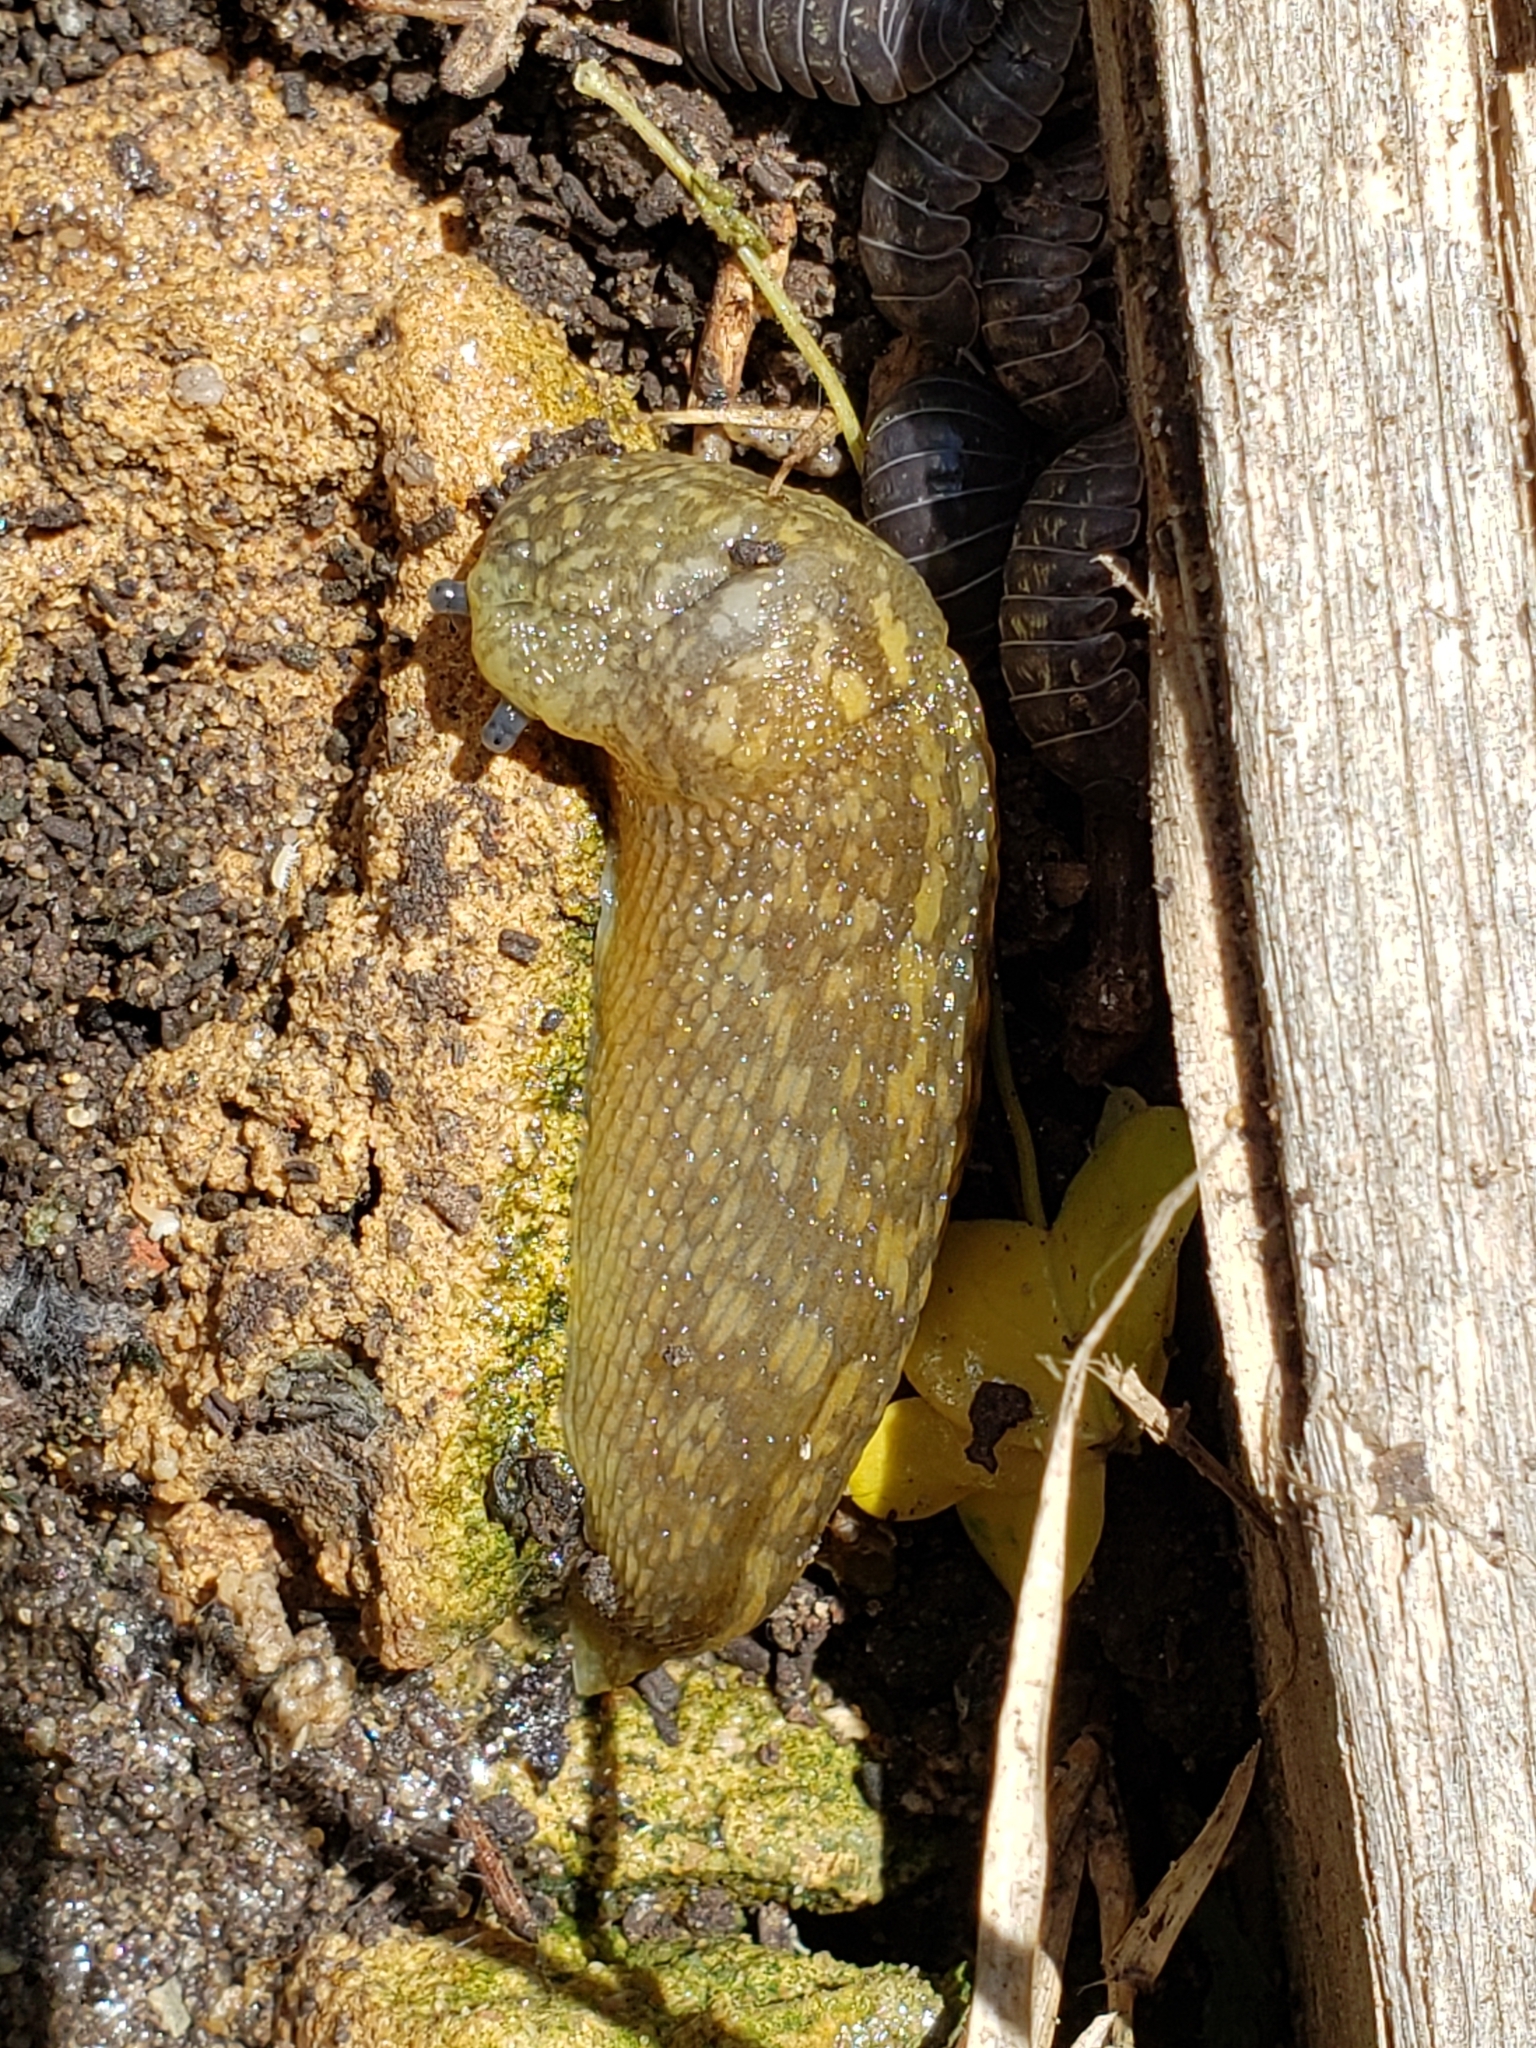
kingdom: Animalia
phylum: Mollusca
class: Gastropoda
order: Stylommatophora
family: Limacidae
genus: Limacus
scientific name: Limacus flavus
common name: Yellow gardenslug
